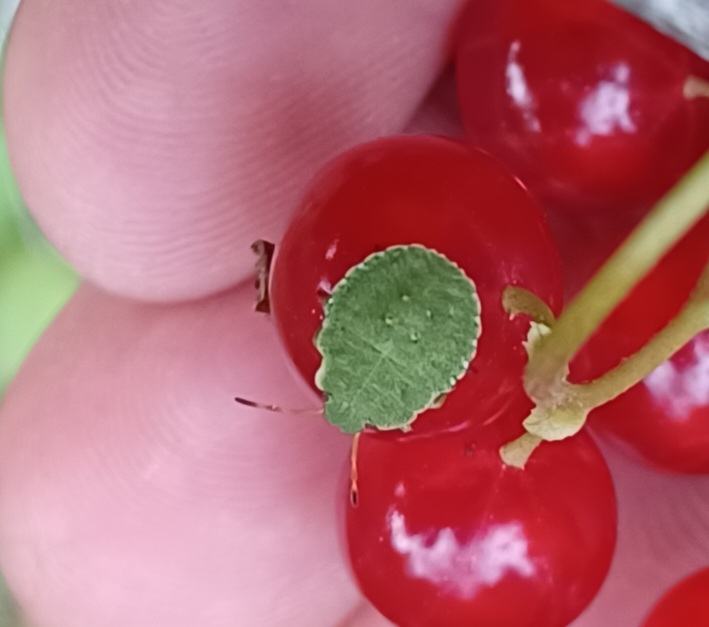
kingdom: Animalia
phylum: Arthropoda
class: Insecta
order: Hemiptera
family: Pentatomidae
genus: Palomena
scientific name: Palomena prasina
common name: Green shieldbug
